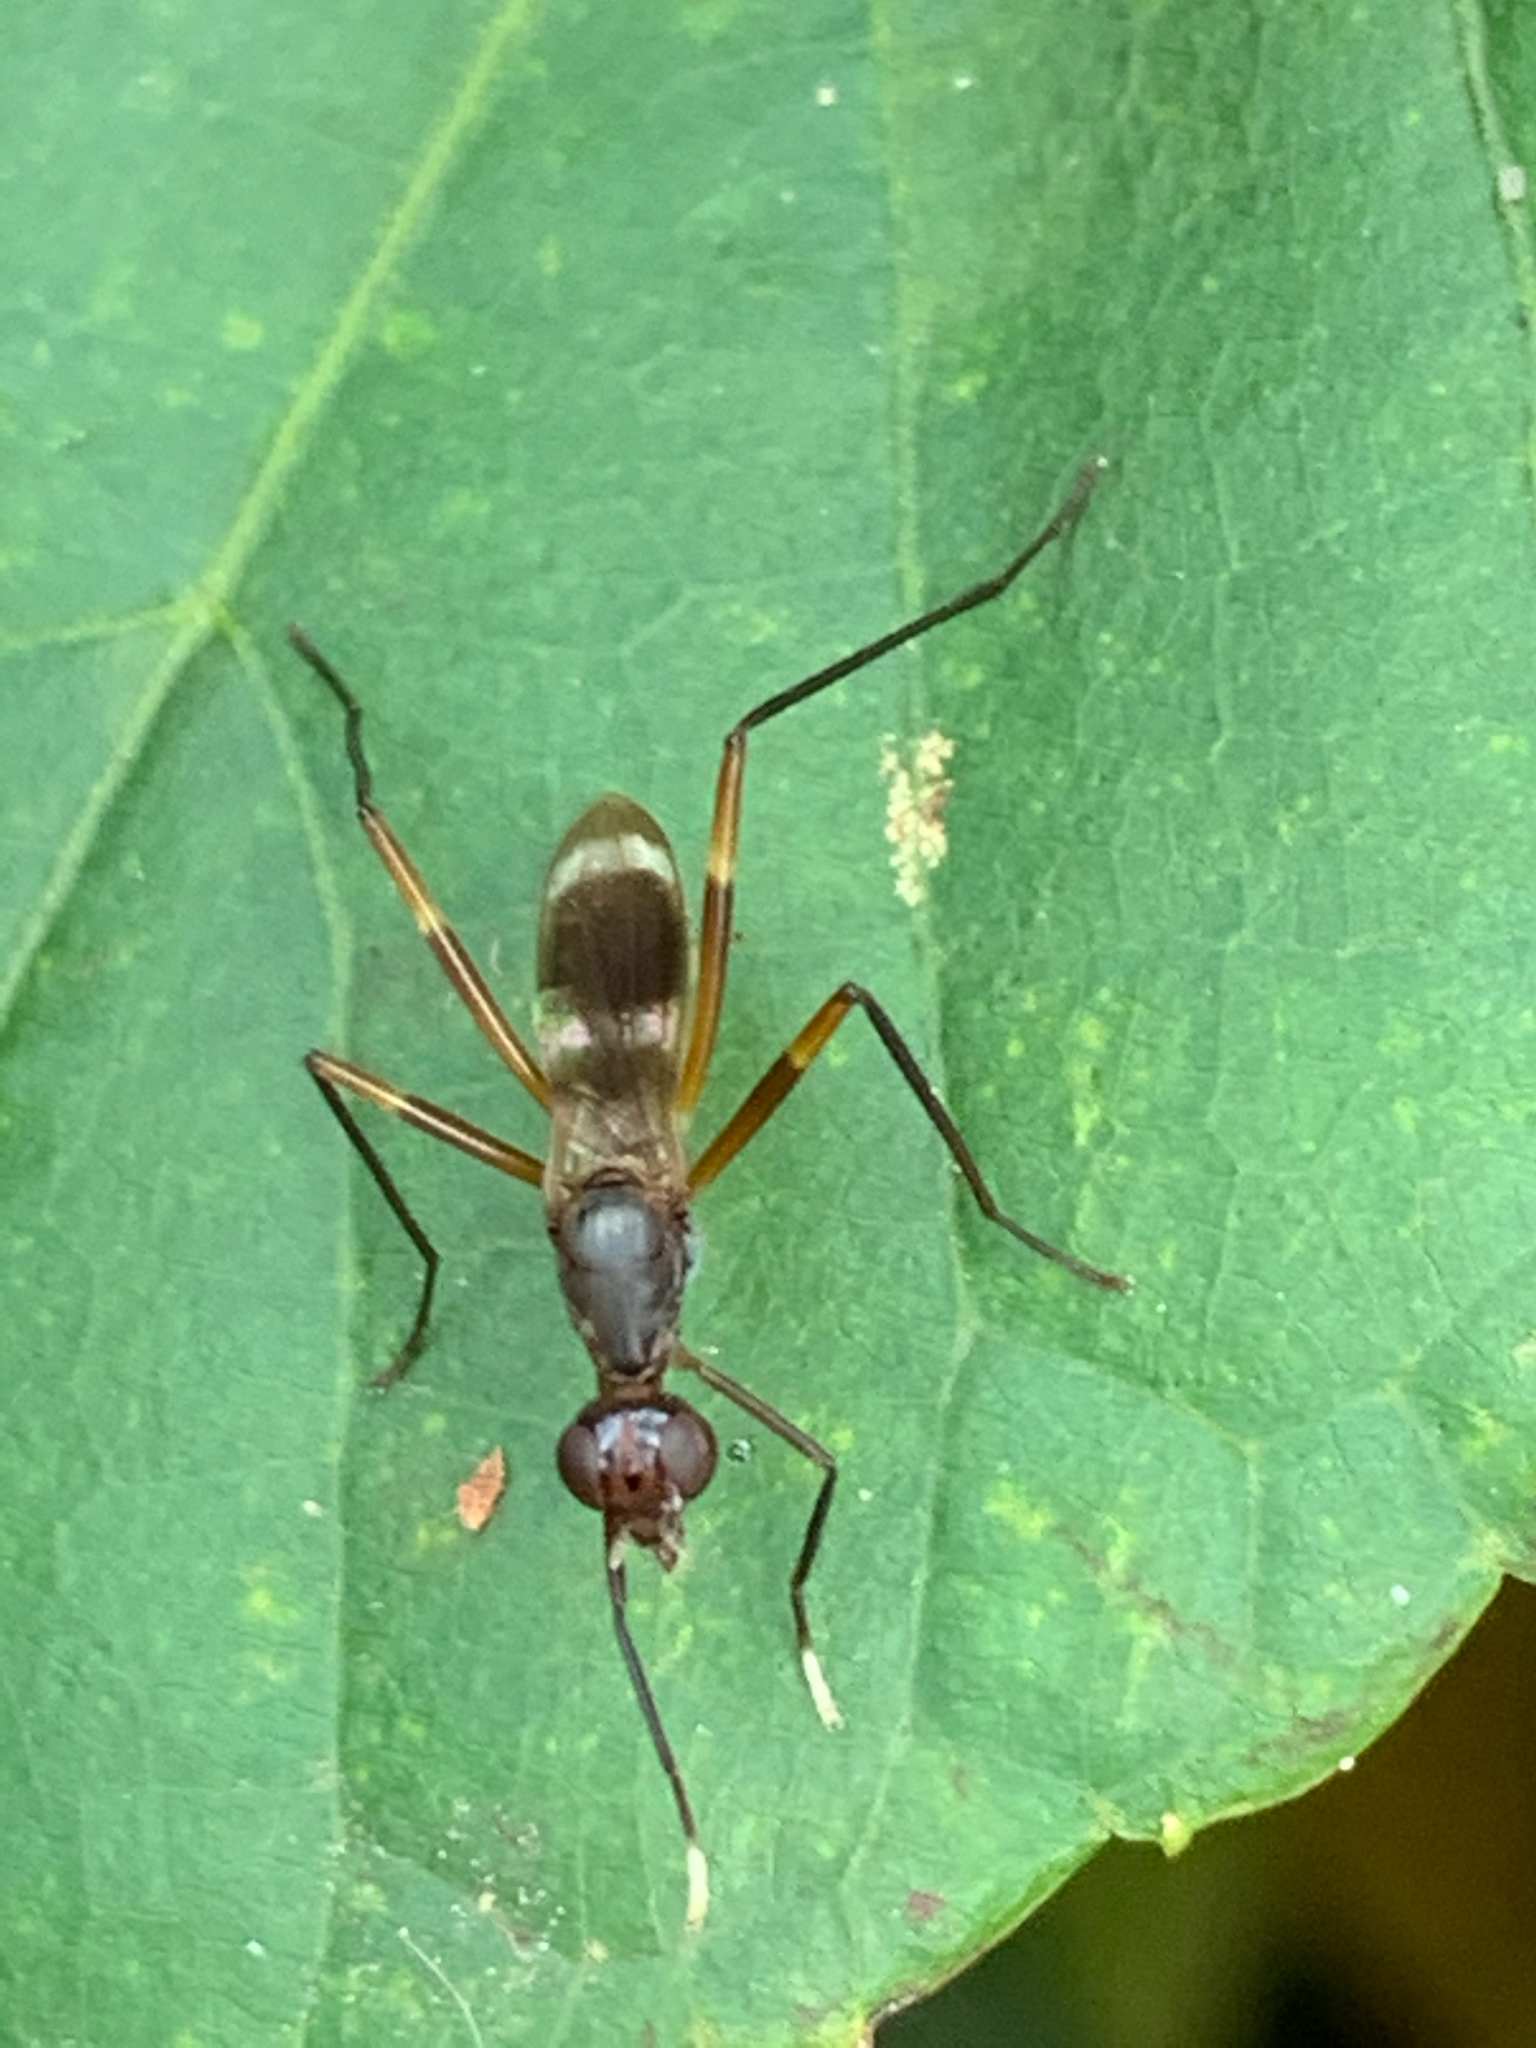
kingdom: Animalia
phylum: Arthropoda
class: Insecta
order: Diptera
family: Micropezidae
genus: Taeniaptera
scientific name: Taeniaptera trivittata
